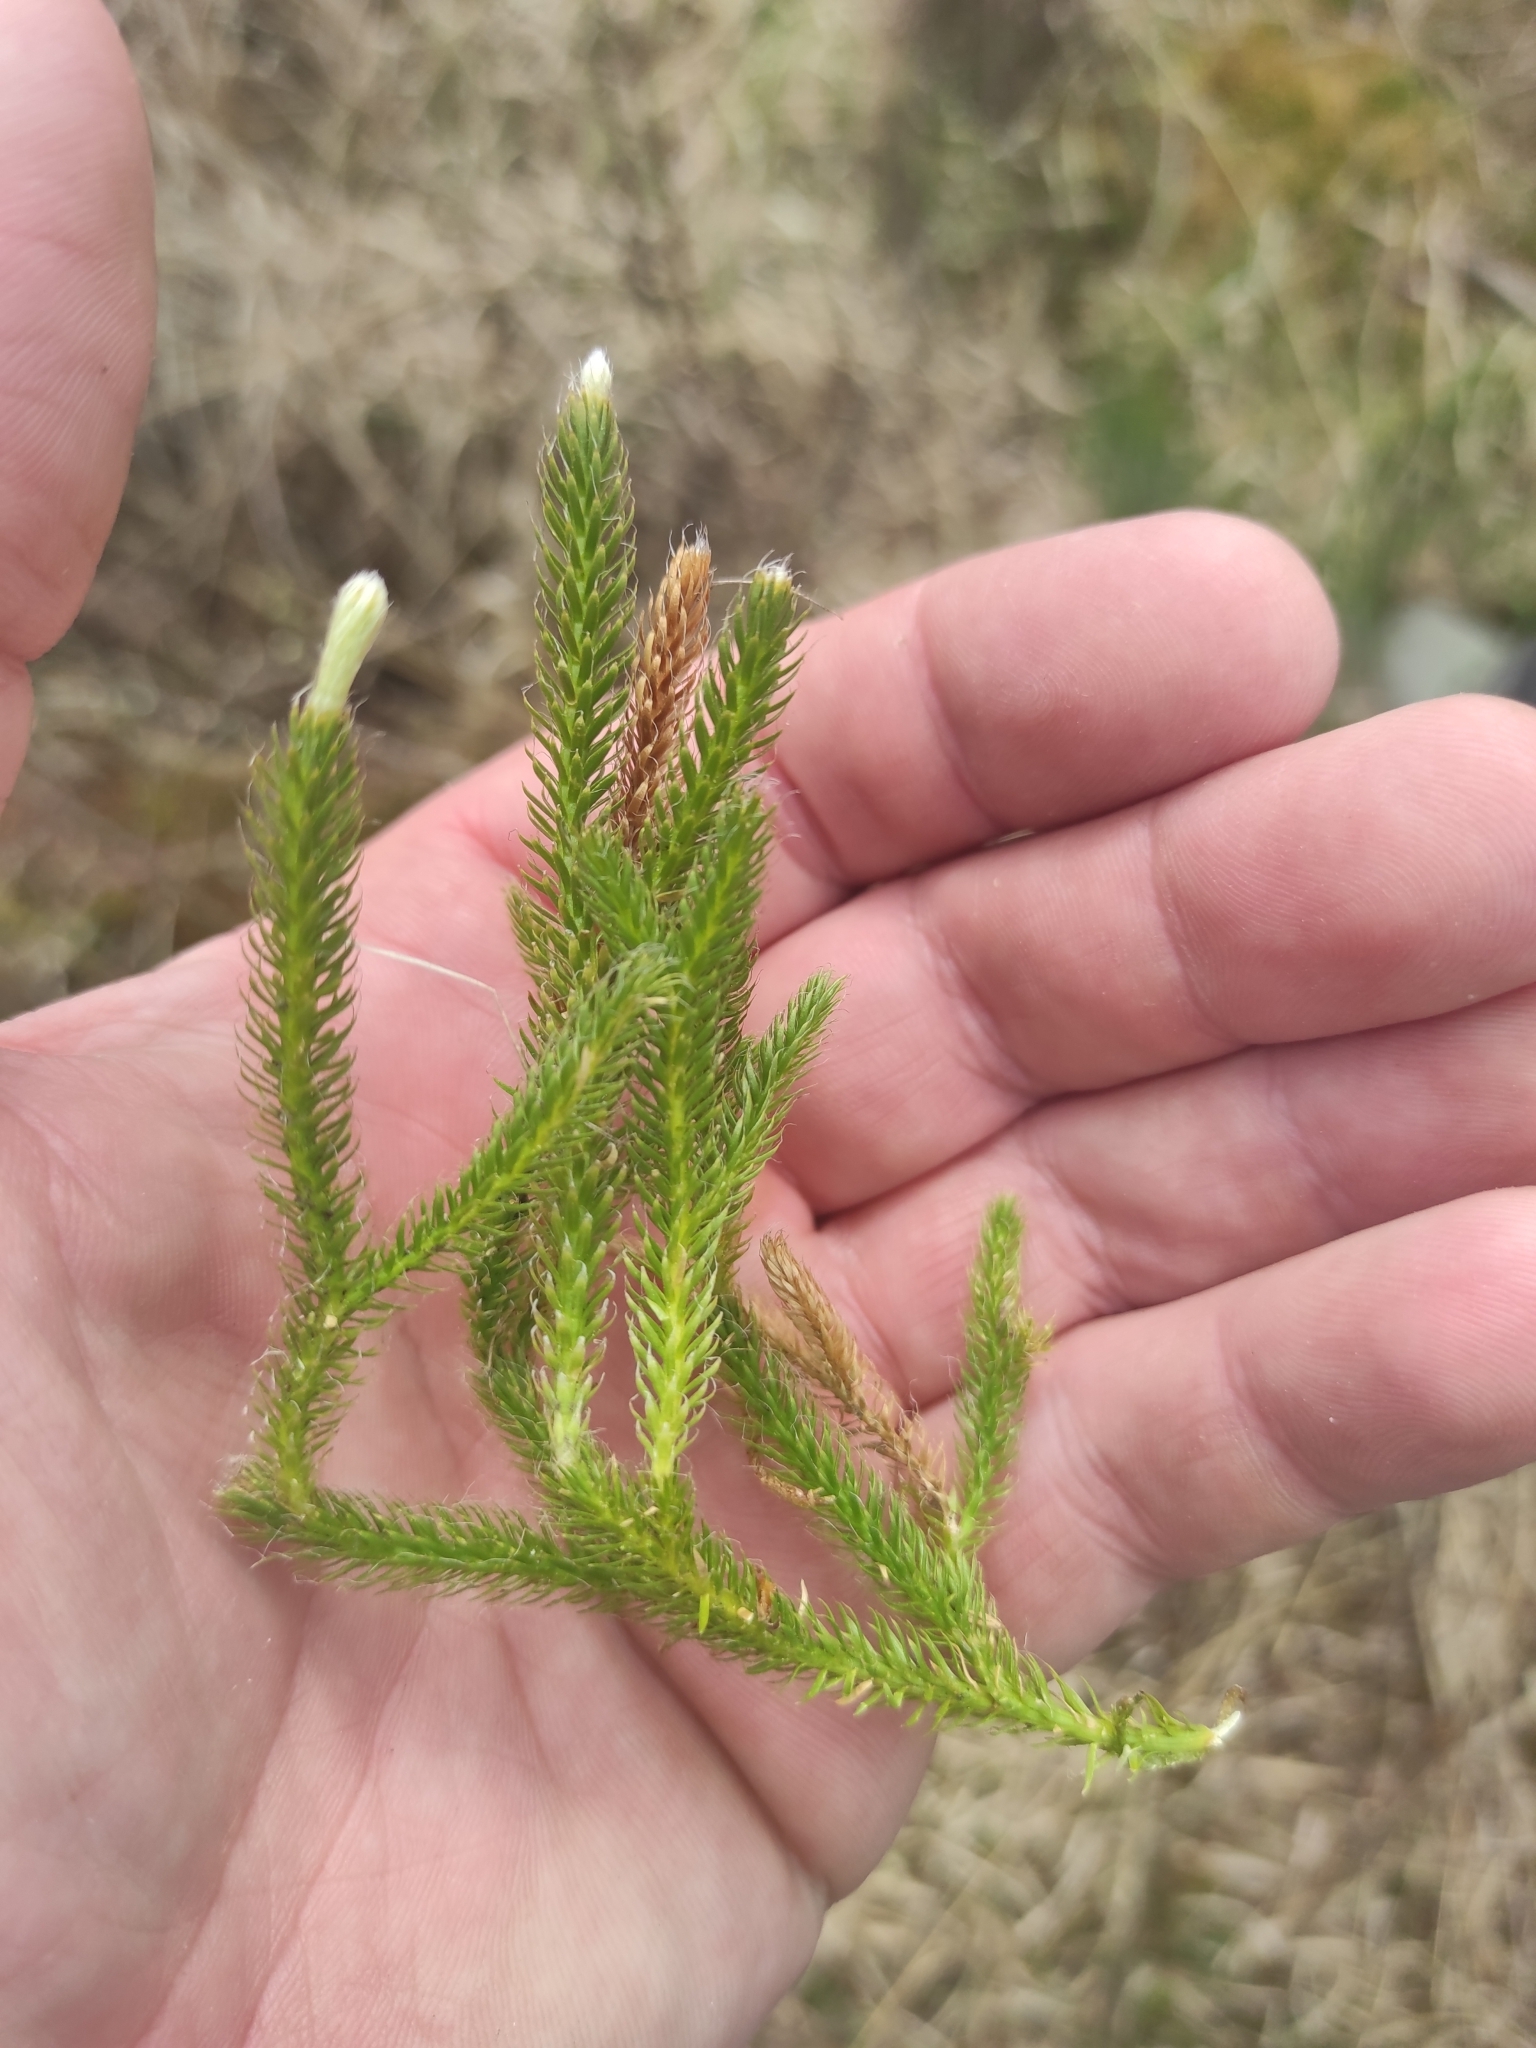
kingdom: Plantae
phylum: Tracheophyta
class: Lycopodiopsida
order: Lycopodiales
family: Lycopodiaceae
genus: Lycopodium
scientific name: Lycopodium clavatum
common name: Stag's-horn clubmoss
